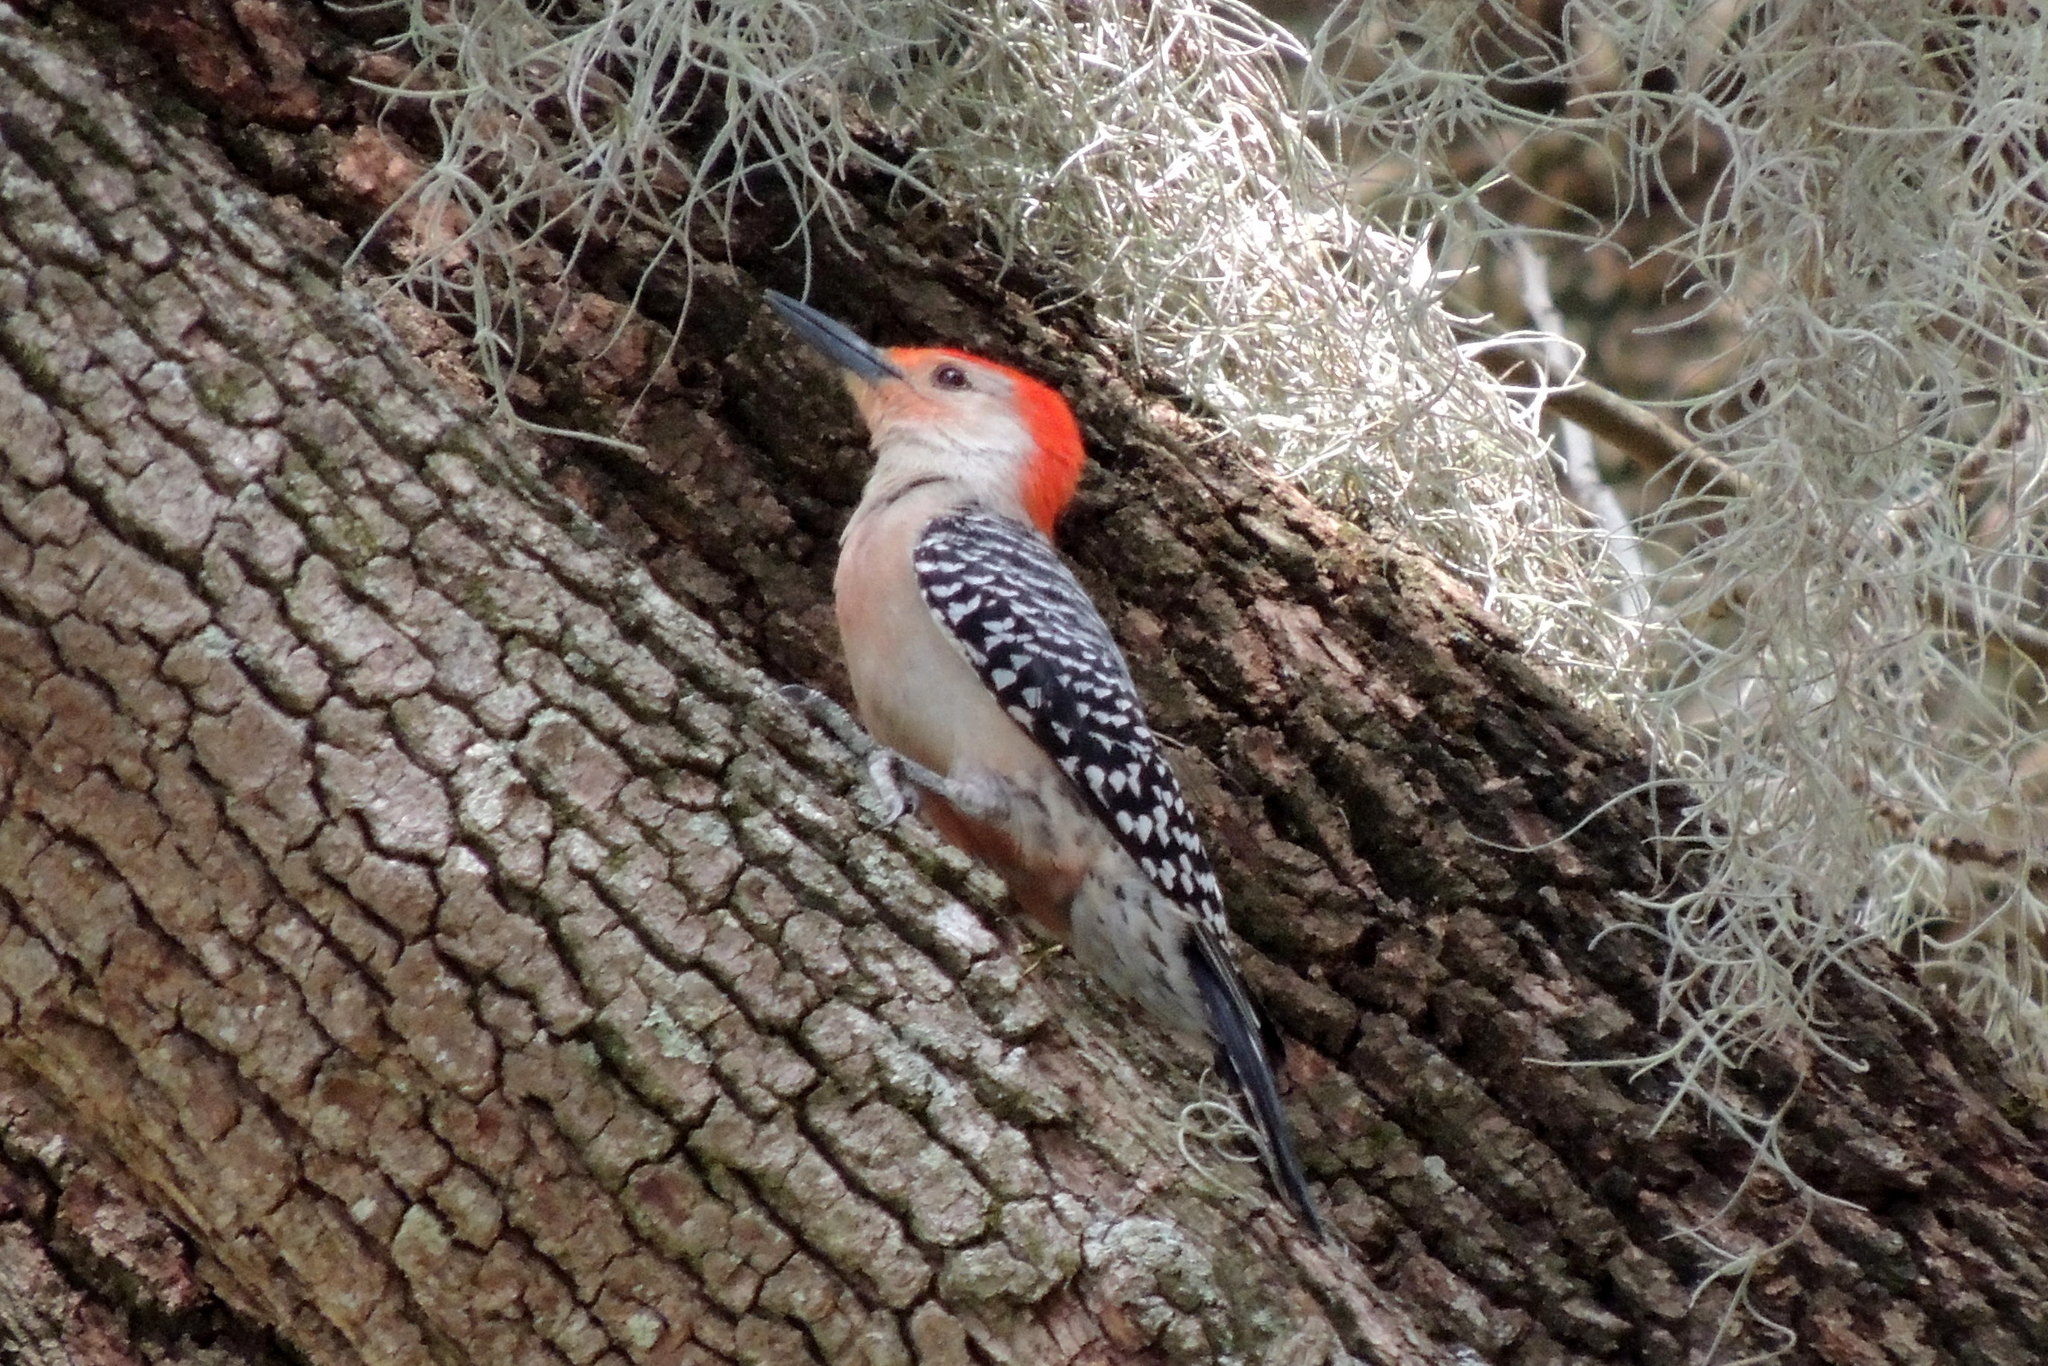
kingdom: Animalia
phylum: Chordata
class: Aves
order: Piciformes
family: Picidae
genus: Melanerpes
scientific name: Melanerpes carolinus
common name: Red-bellied woodpecker
